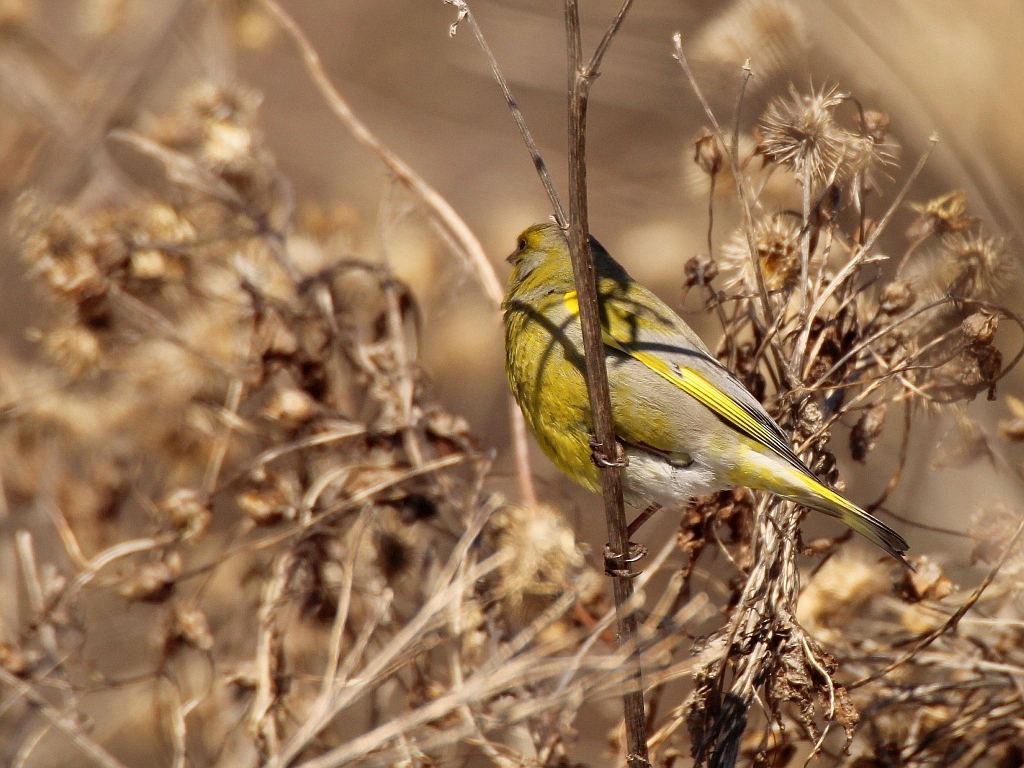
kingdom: Plantae
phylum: Tracheophyta
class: Liliopsida
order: Poales
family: Poaceae
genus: Chloris
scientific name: Chloris chloris
